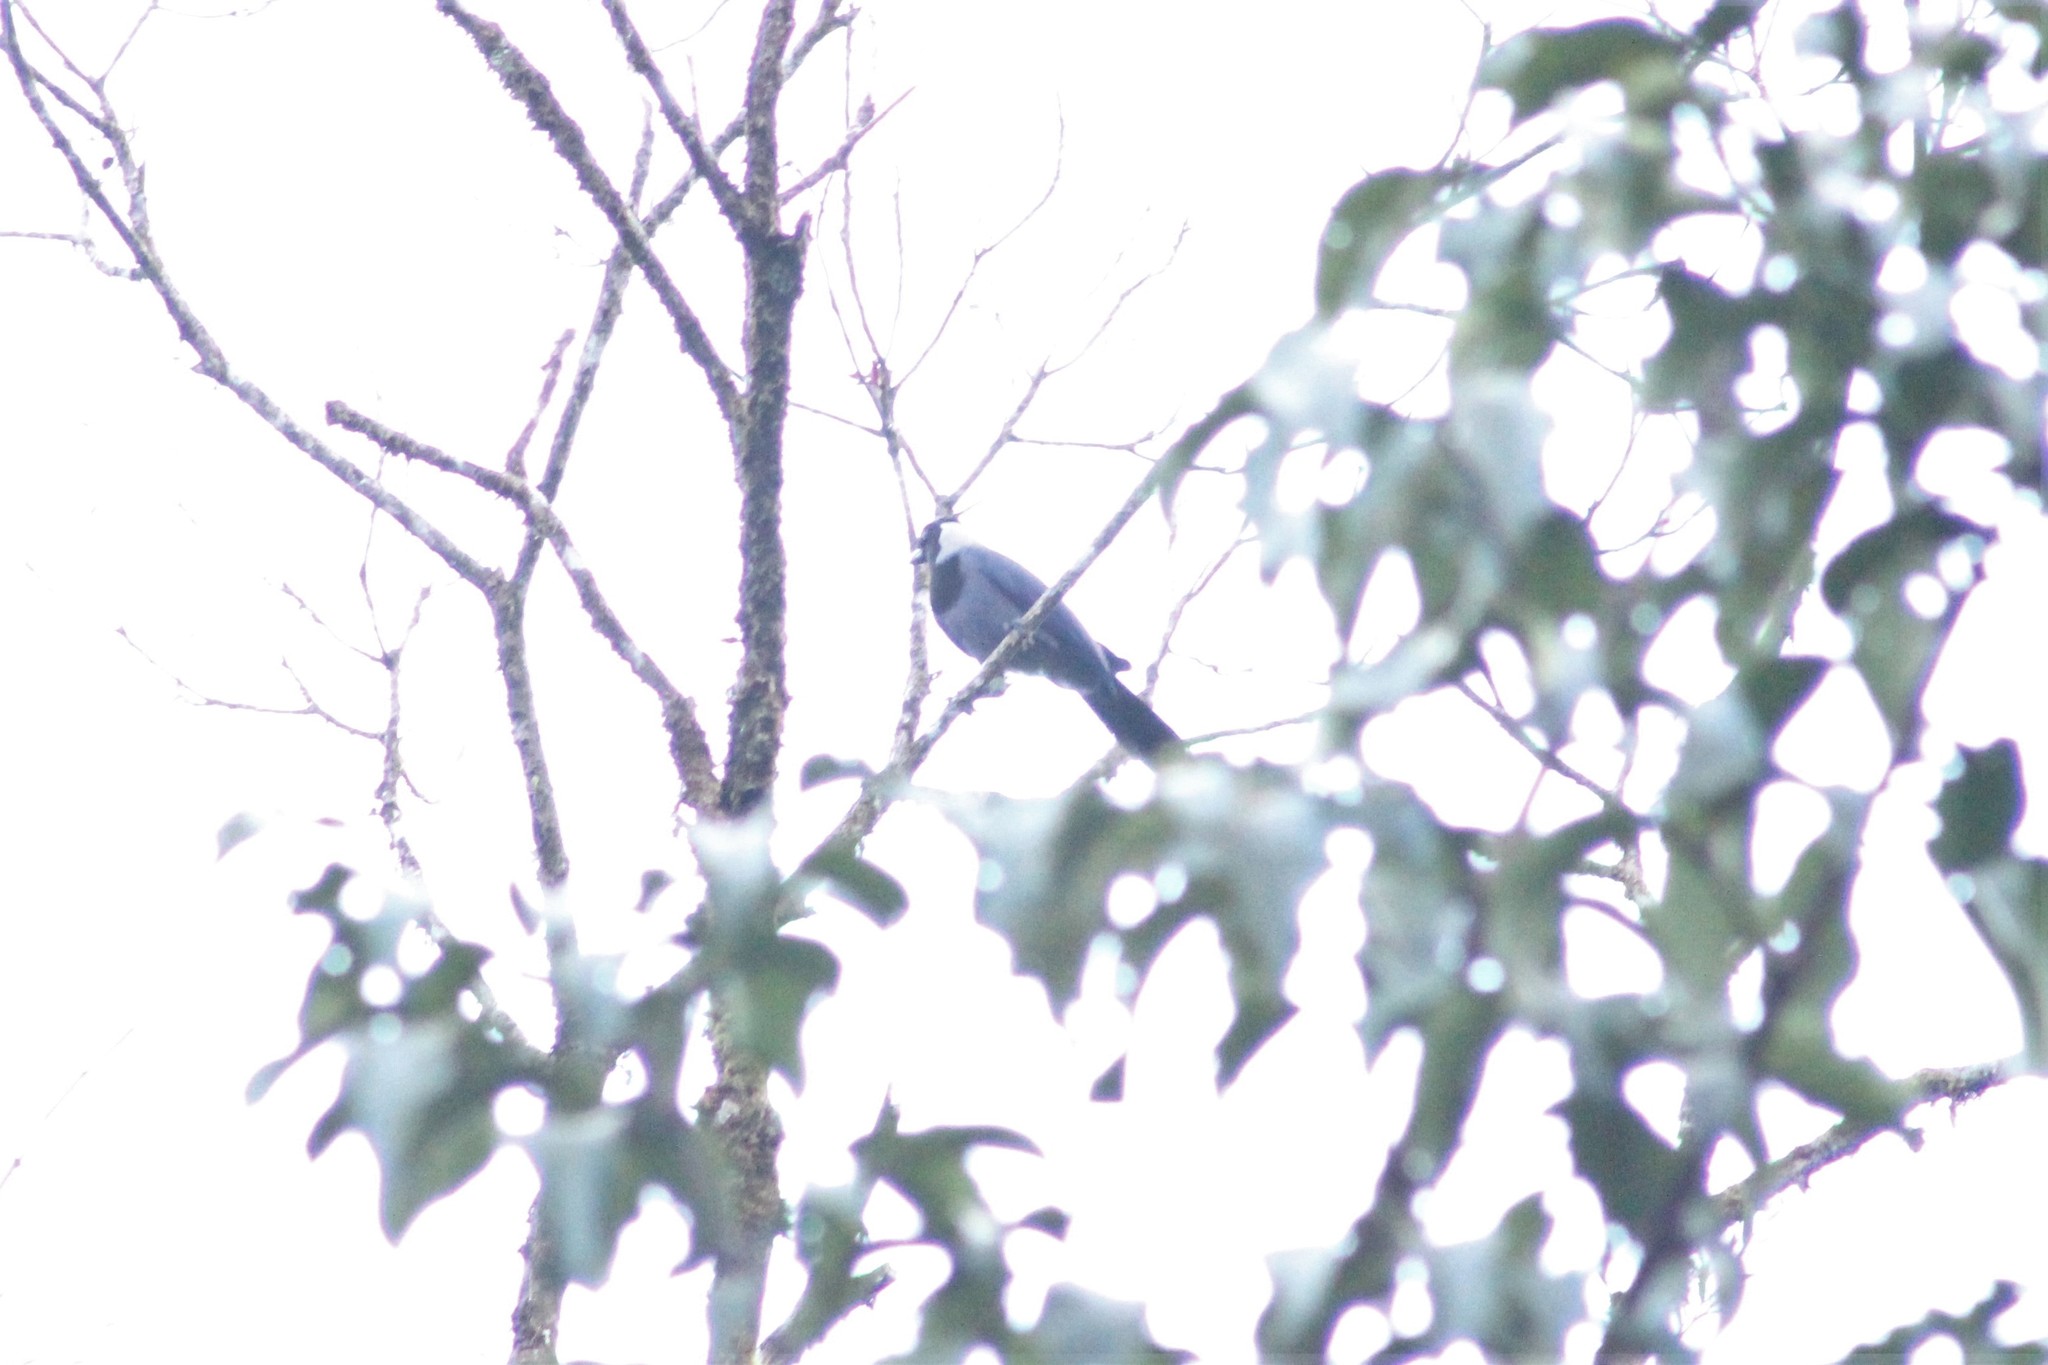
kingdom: Animalia
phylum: Chordata
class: Aves
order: Passeriformes
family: Corvidae
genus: Cyanocorax
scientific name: Cyanocorax violaceus
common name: Violaceous jay
